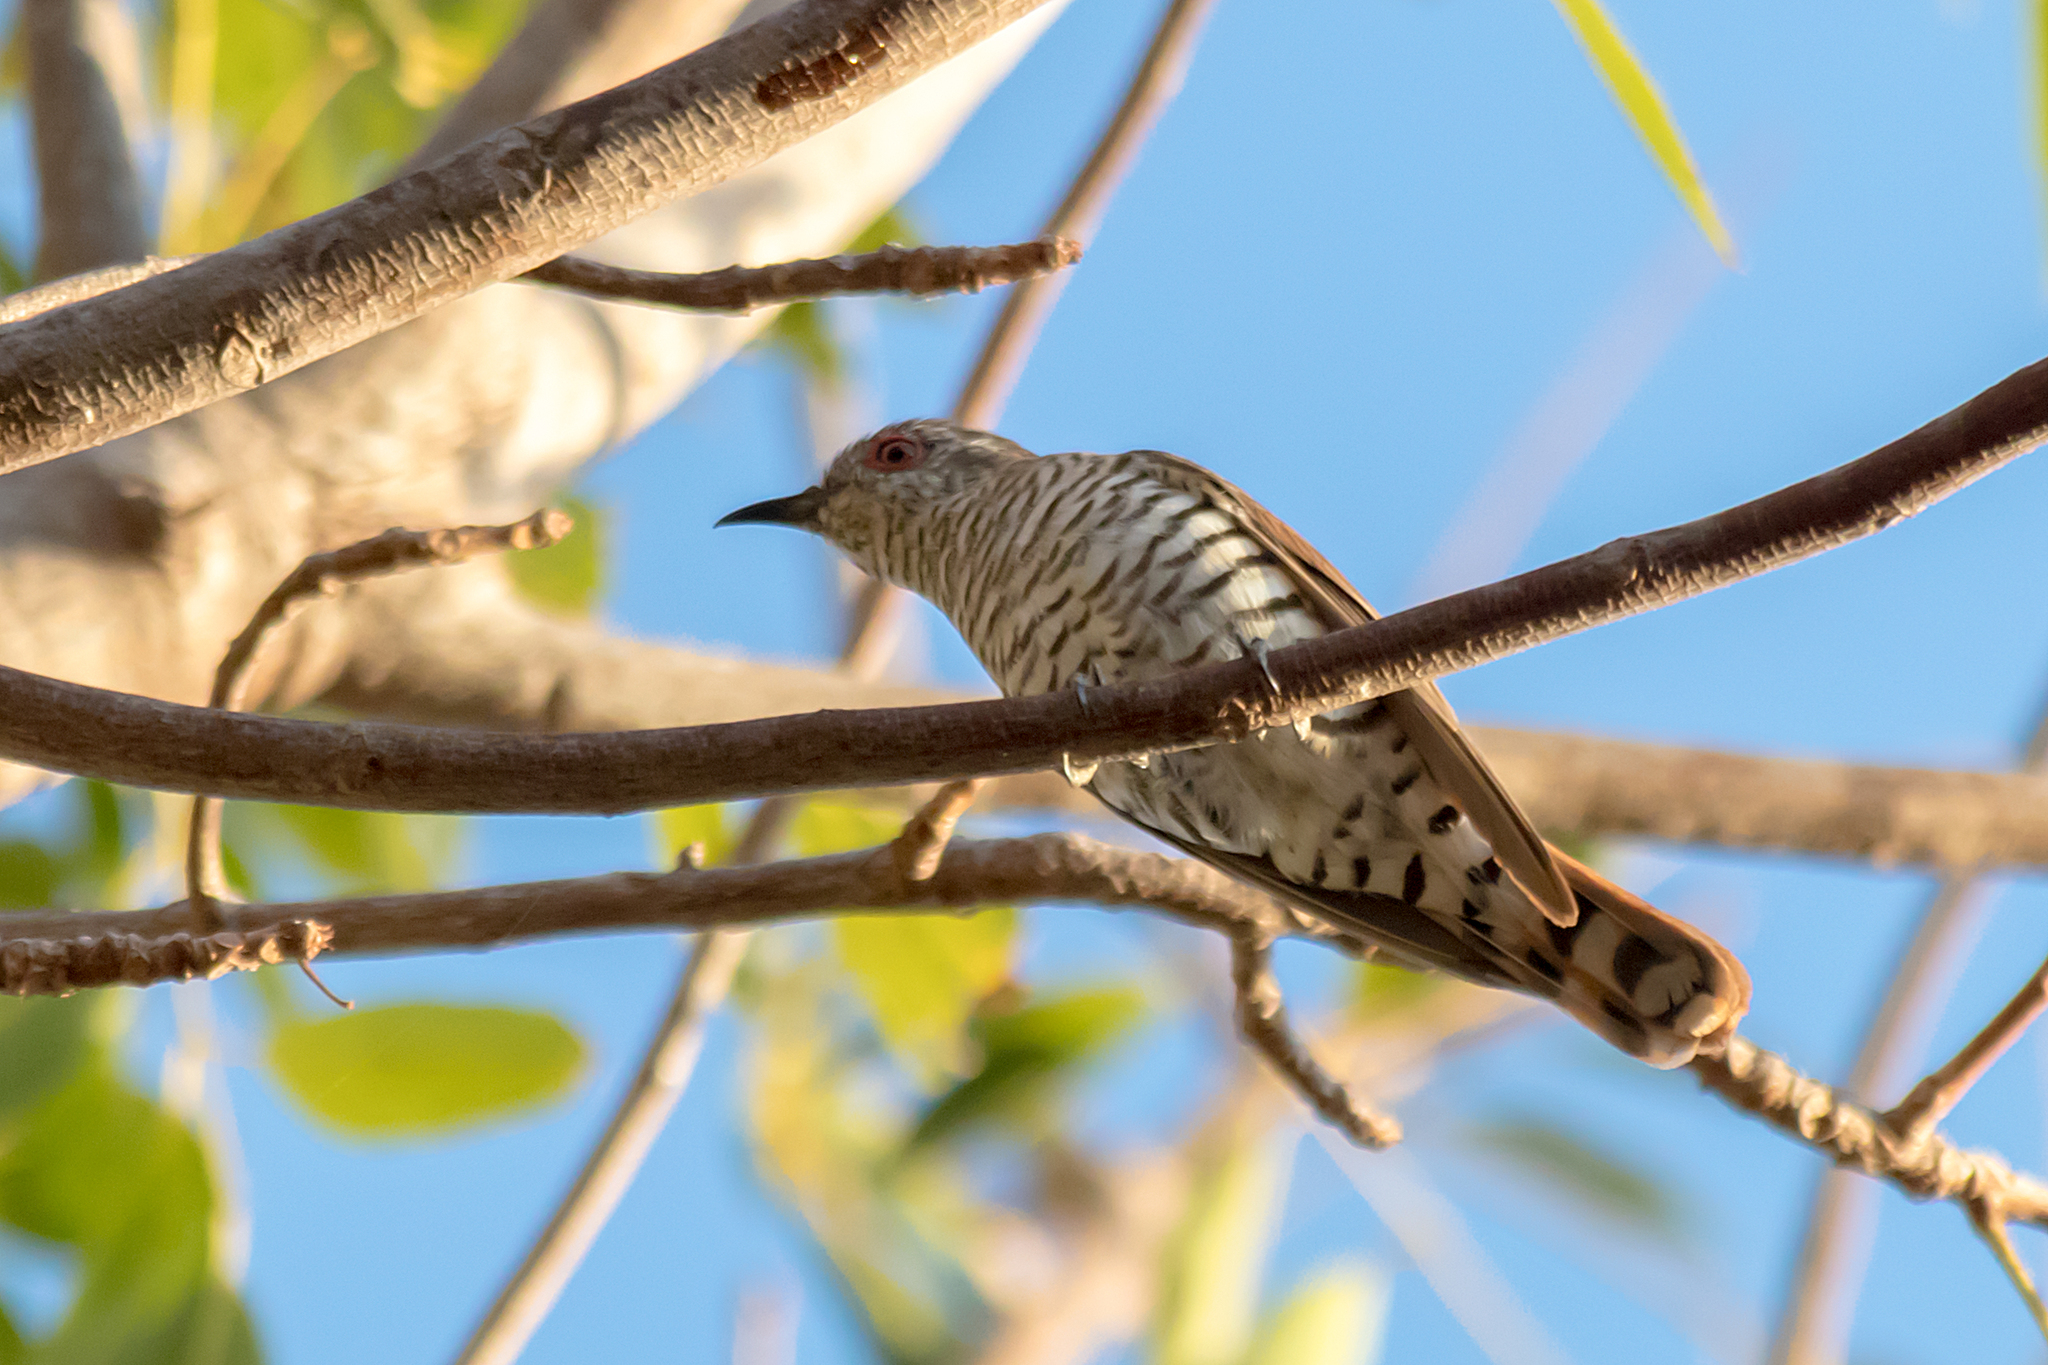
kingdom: Animalia
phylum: Chordata
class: Aves
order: Cuculiformes
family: Cuculidae
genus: Chrysococcyx
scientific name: Chrysococcyx minutillus
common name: Little bronze cuckoo
